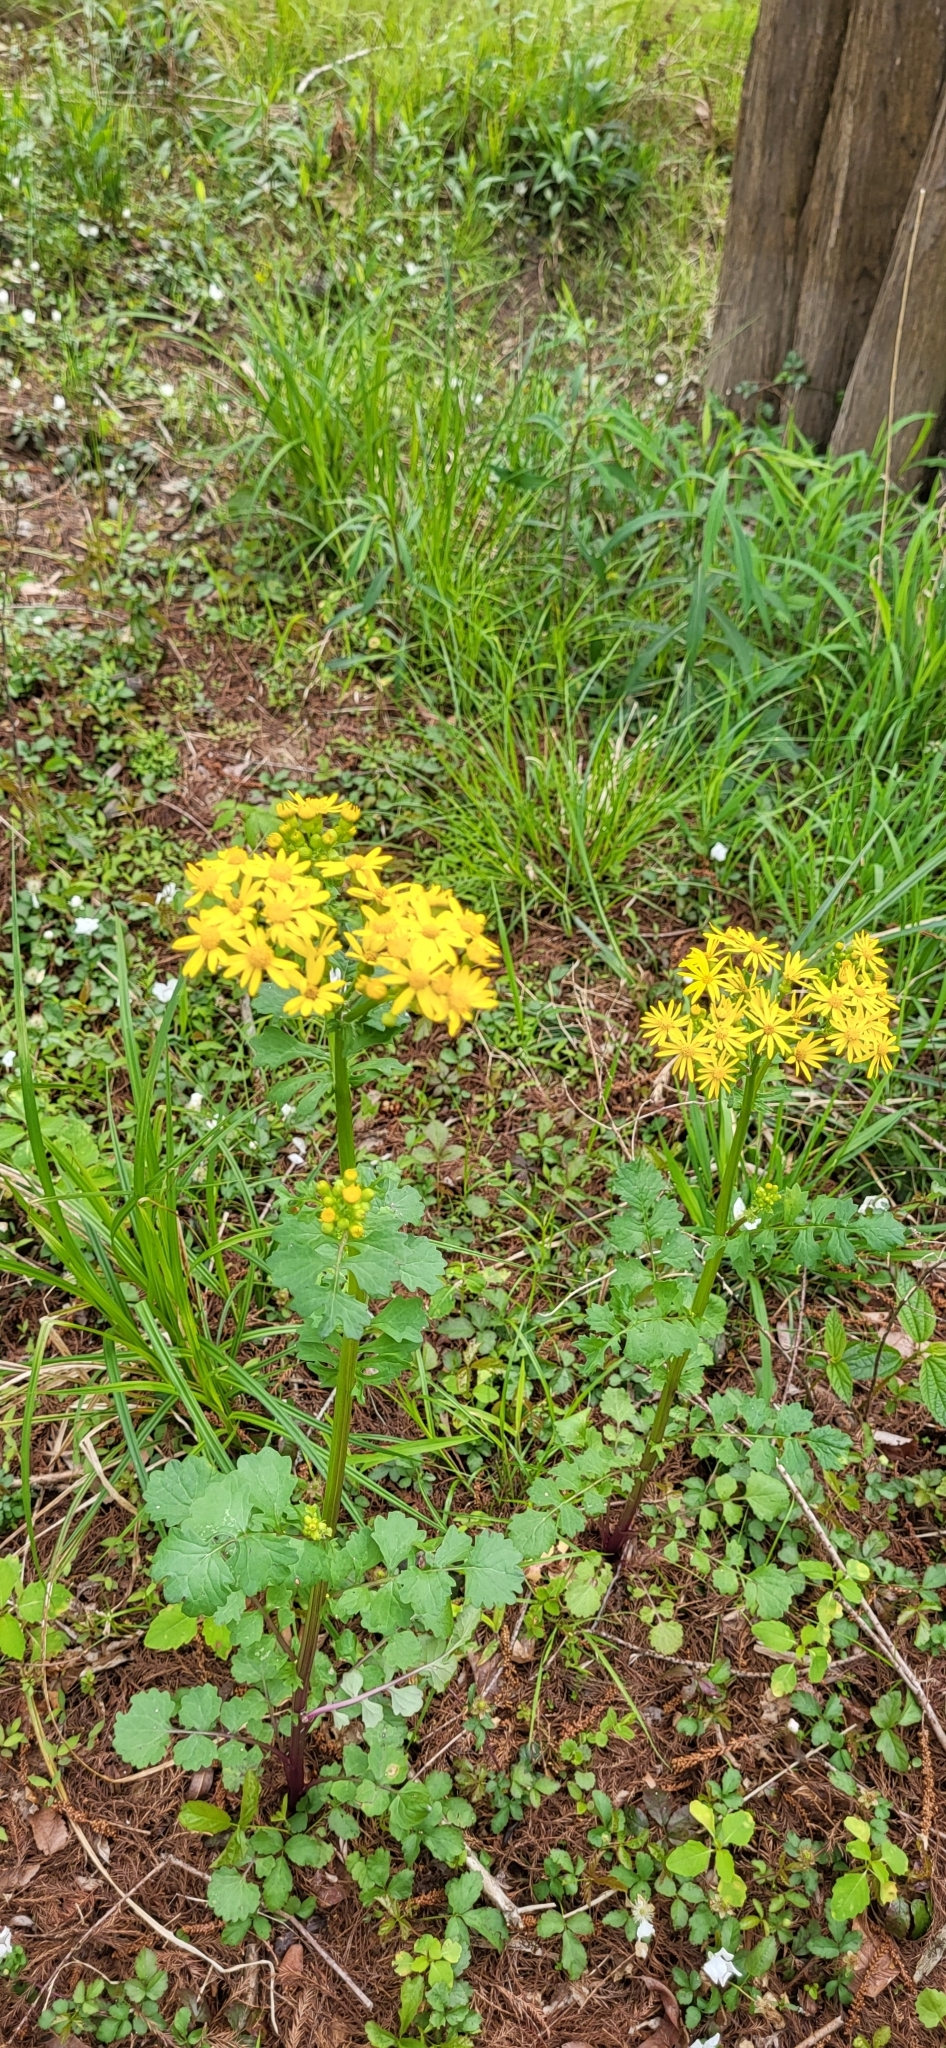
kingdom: Plantae
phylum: Tracheophyta
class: Magnoliopsida
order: Asterales
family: Asteraceae
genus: Packera
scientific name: Packera glabella
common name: Butterweed
